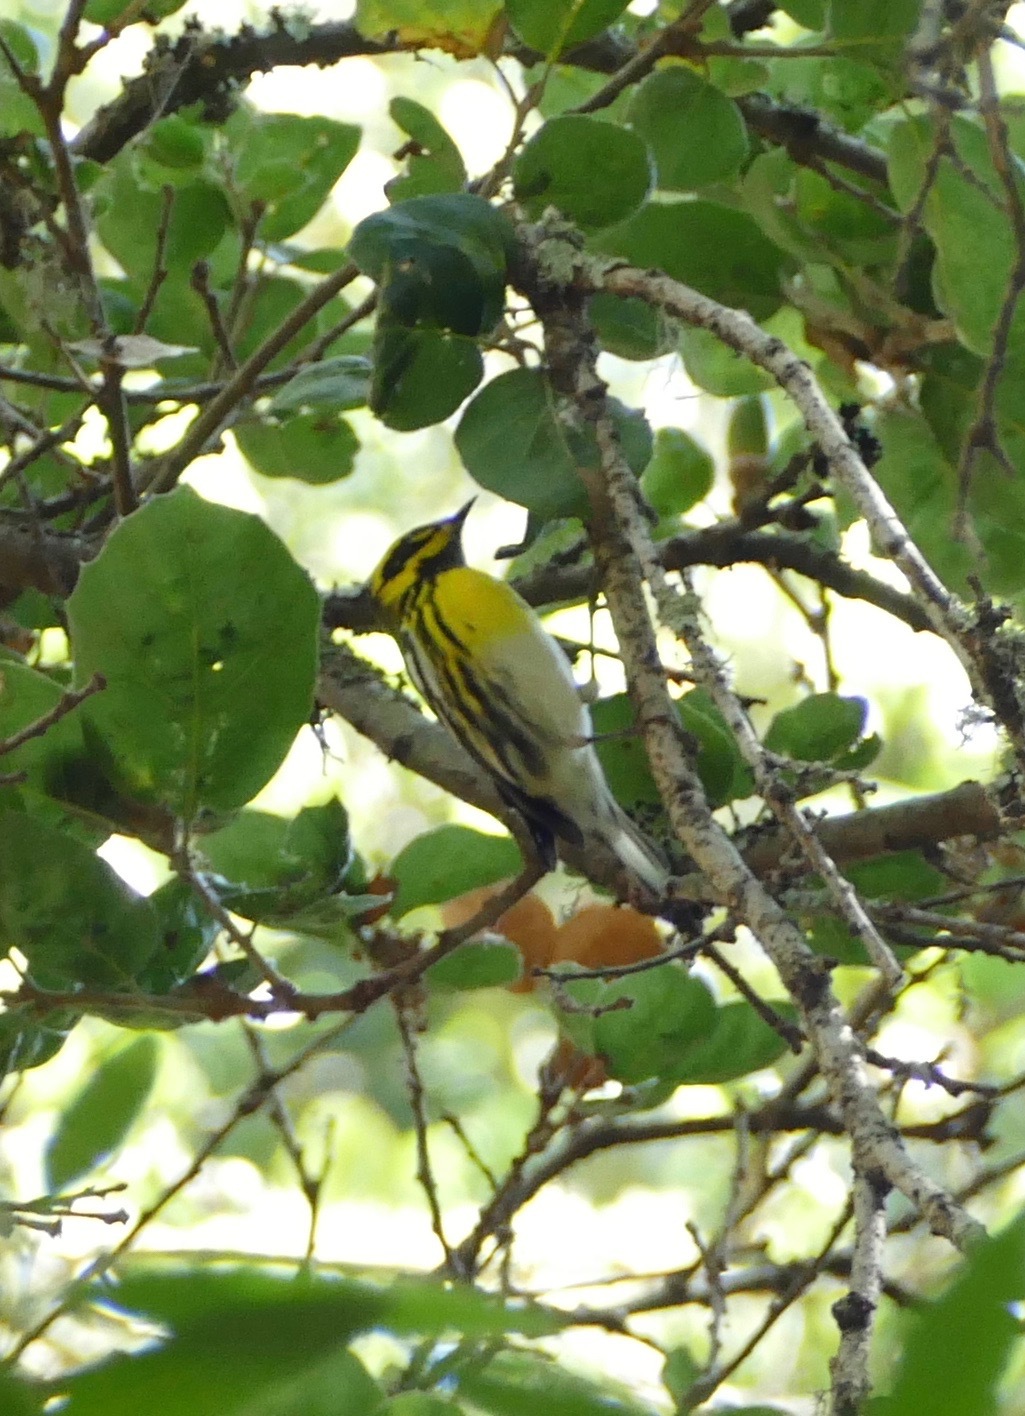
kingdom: Animalia
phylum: Chordata
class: Aves
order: Passeriformes
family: Parulidae
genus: Setophaga
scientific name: Setophaga townsendi
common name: Townsend's warbler
